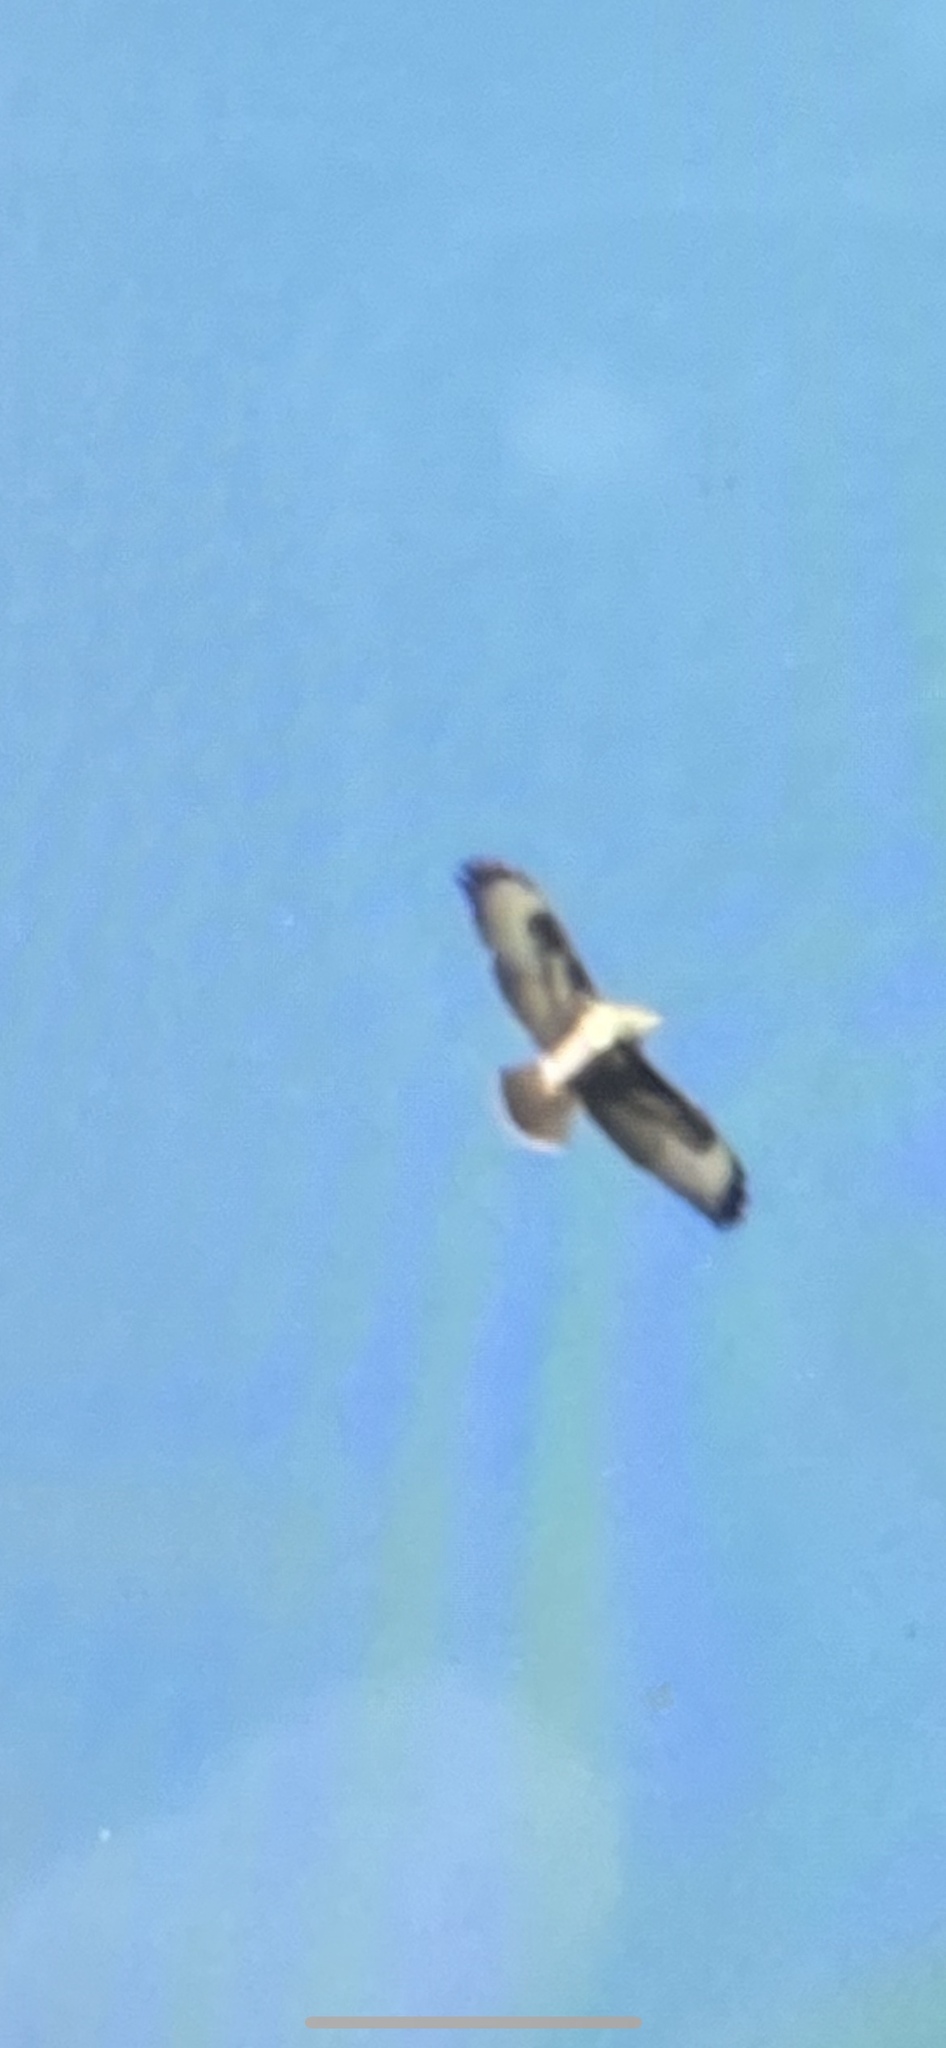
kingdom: Animalia
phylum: Chordata
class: Aves
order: Accipitriformes
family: Accipitridae
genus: Buteo
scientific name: Buteo buteo
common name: Common buzzard
